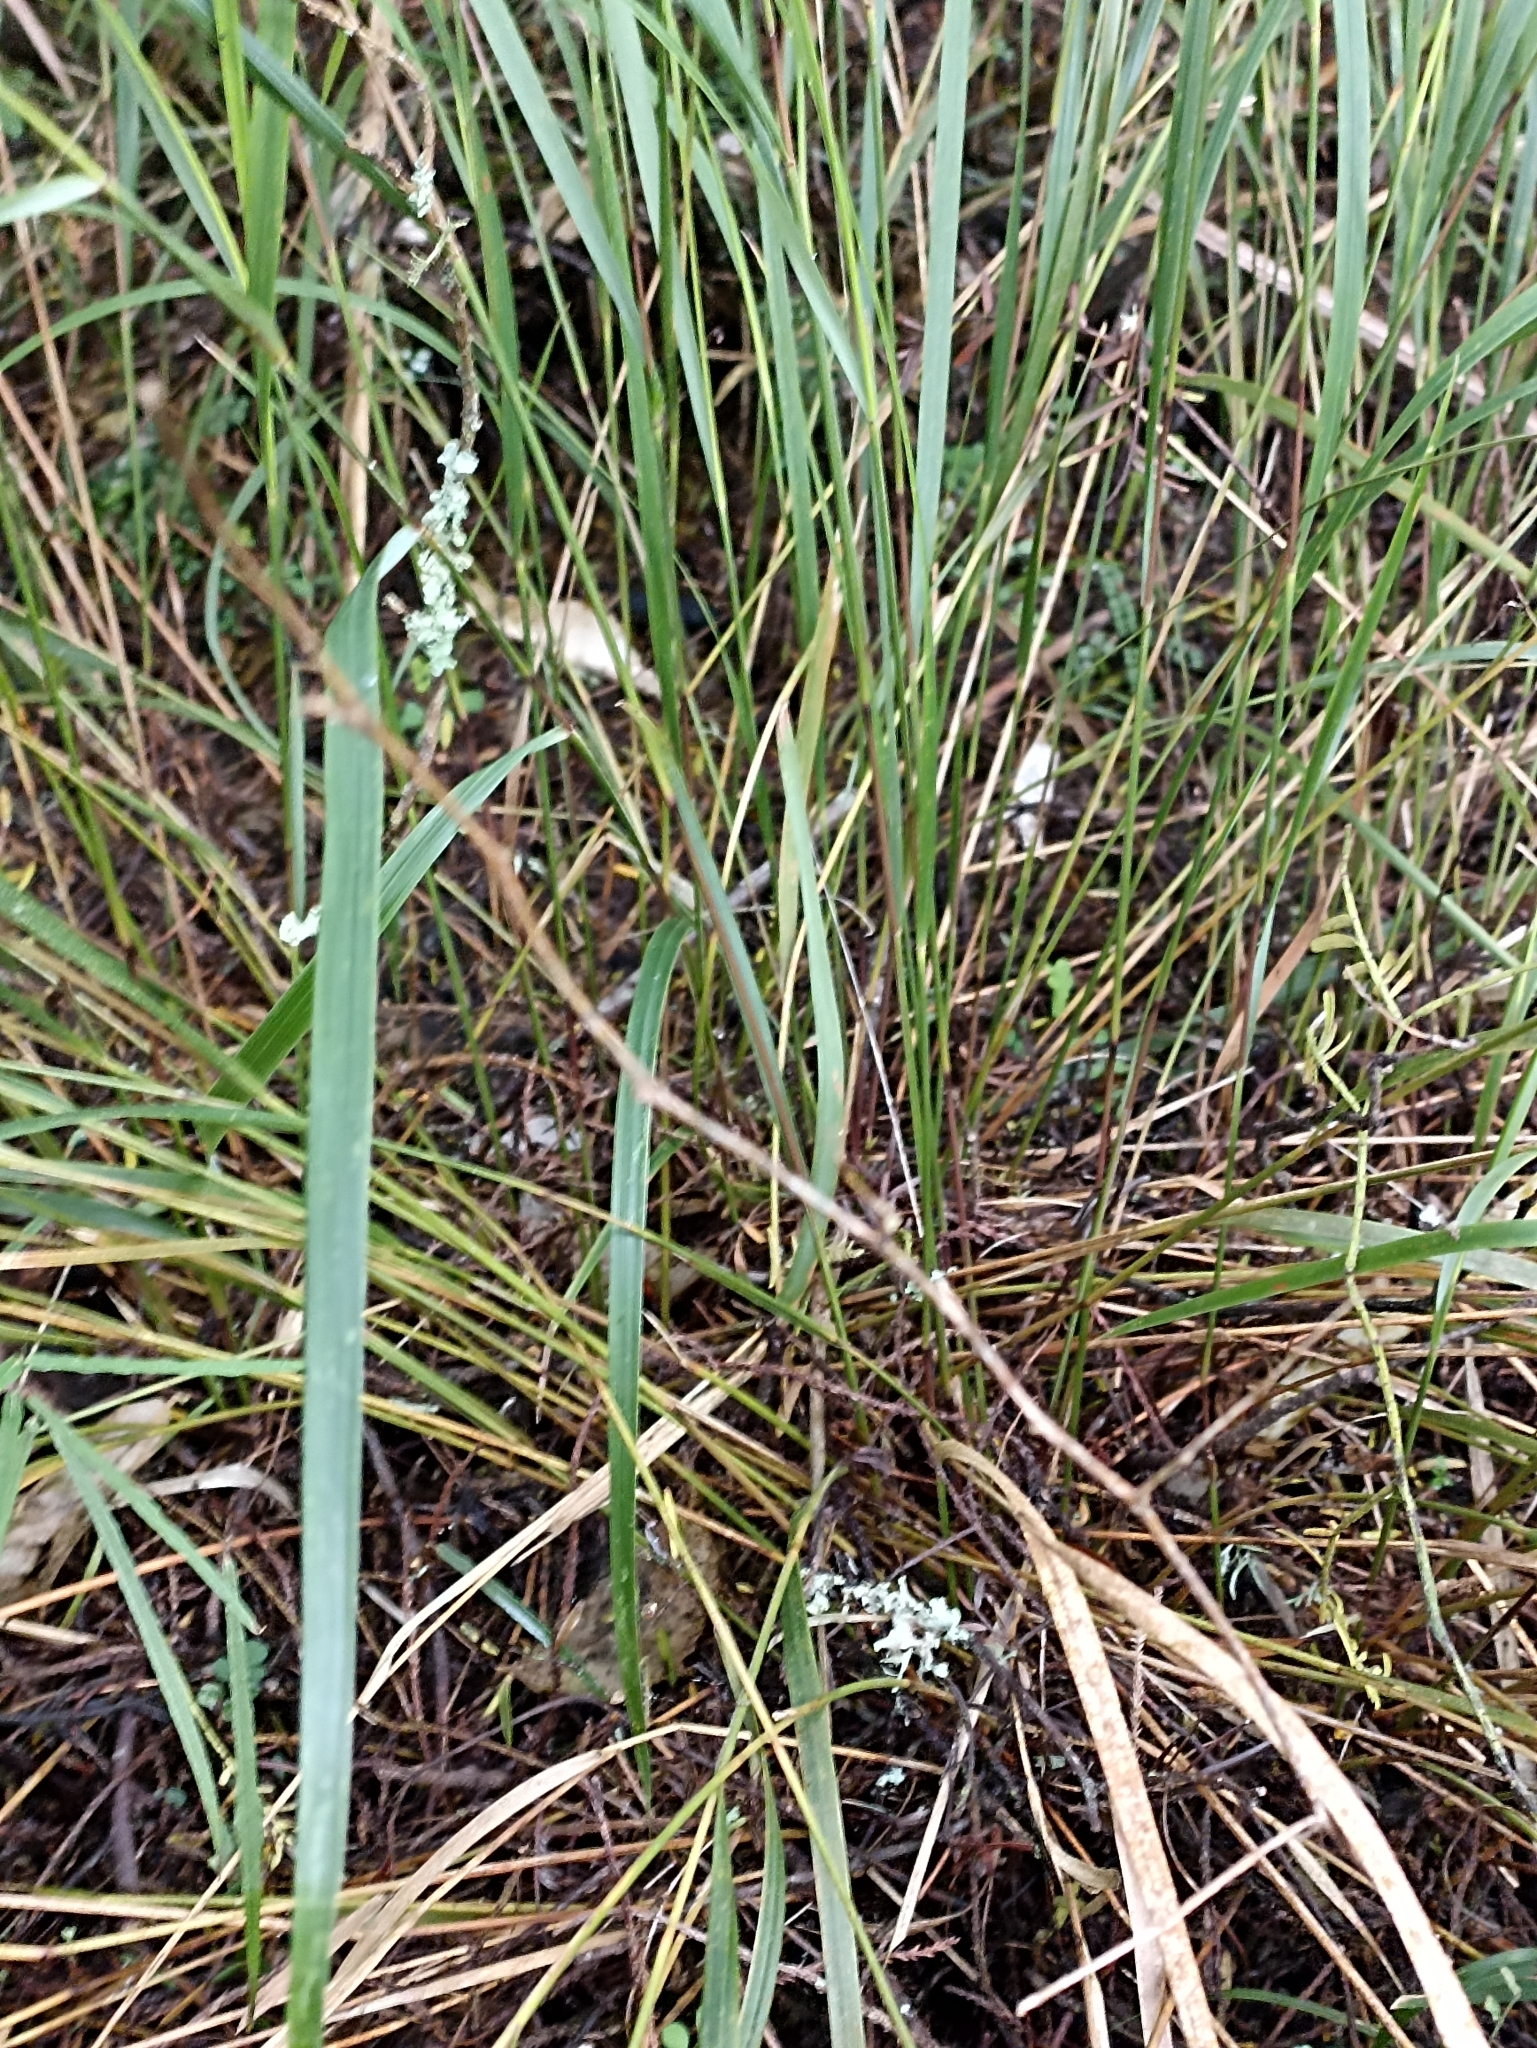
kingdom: Plantae
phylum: Tracheophyta
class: Liliopsida
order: Poales
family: Poaceae
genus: Anemanthele
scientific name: Anemanthele lessoniana
